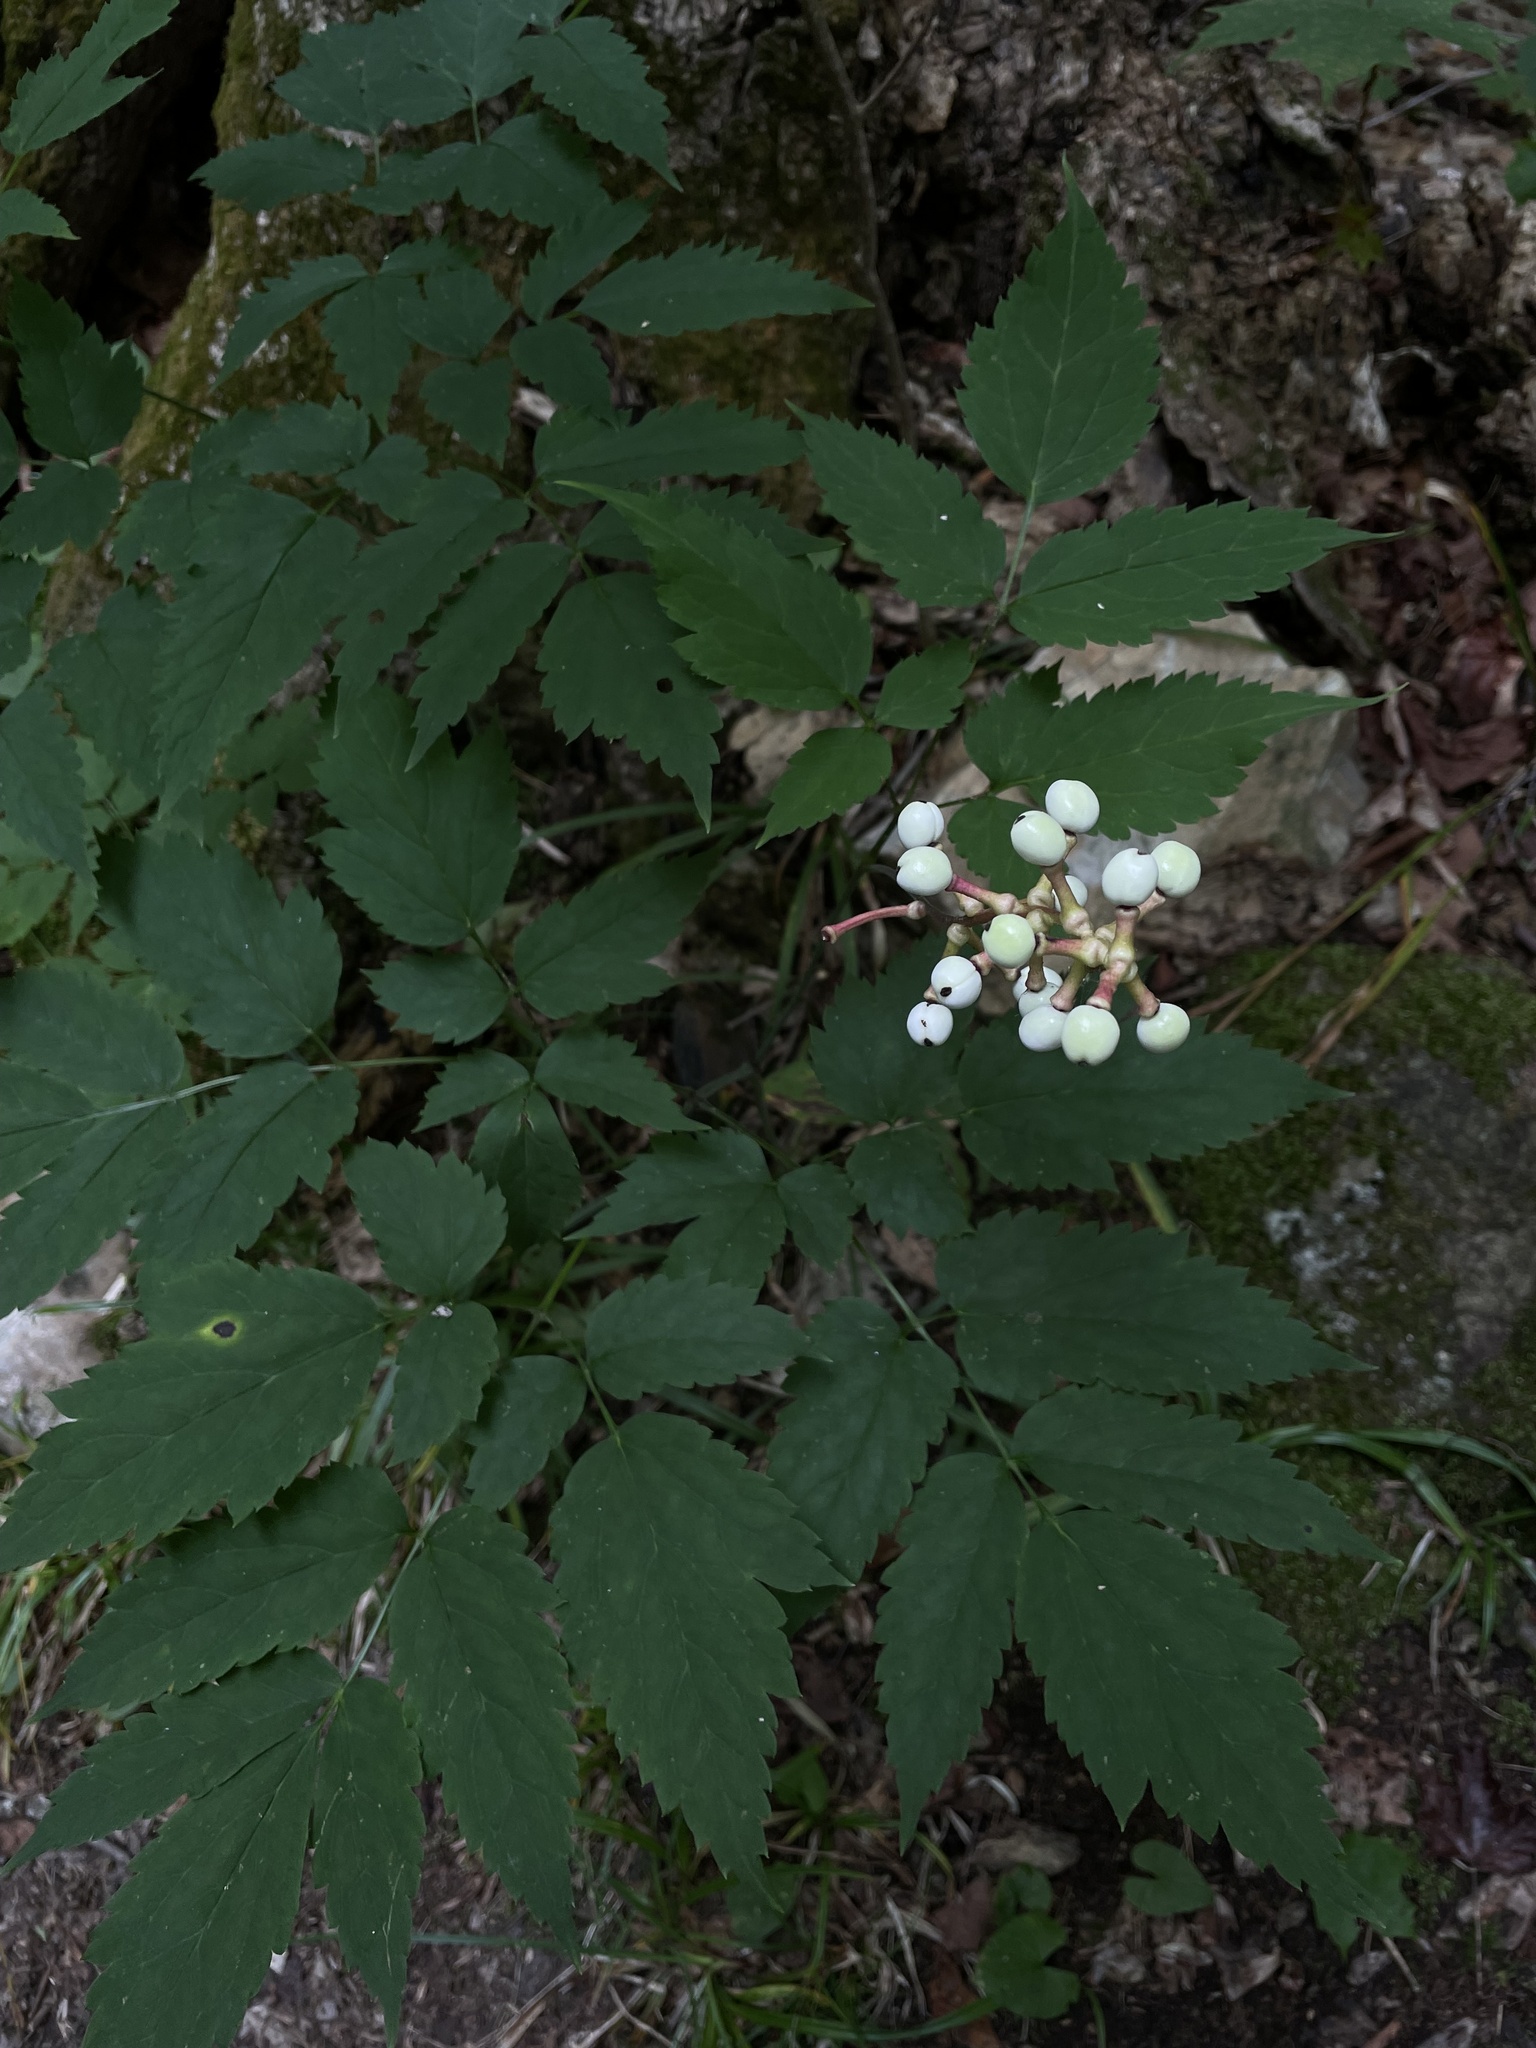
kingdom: Plantae
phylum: Tracheophyta
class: Magnoliopsida
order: Ranunculales
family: Ranunculaceae
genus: Actaea
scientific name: Actaea pachypoda
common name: Doll's-eyes
